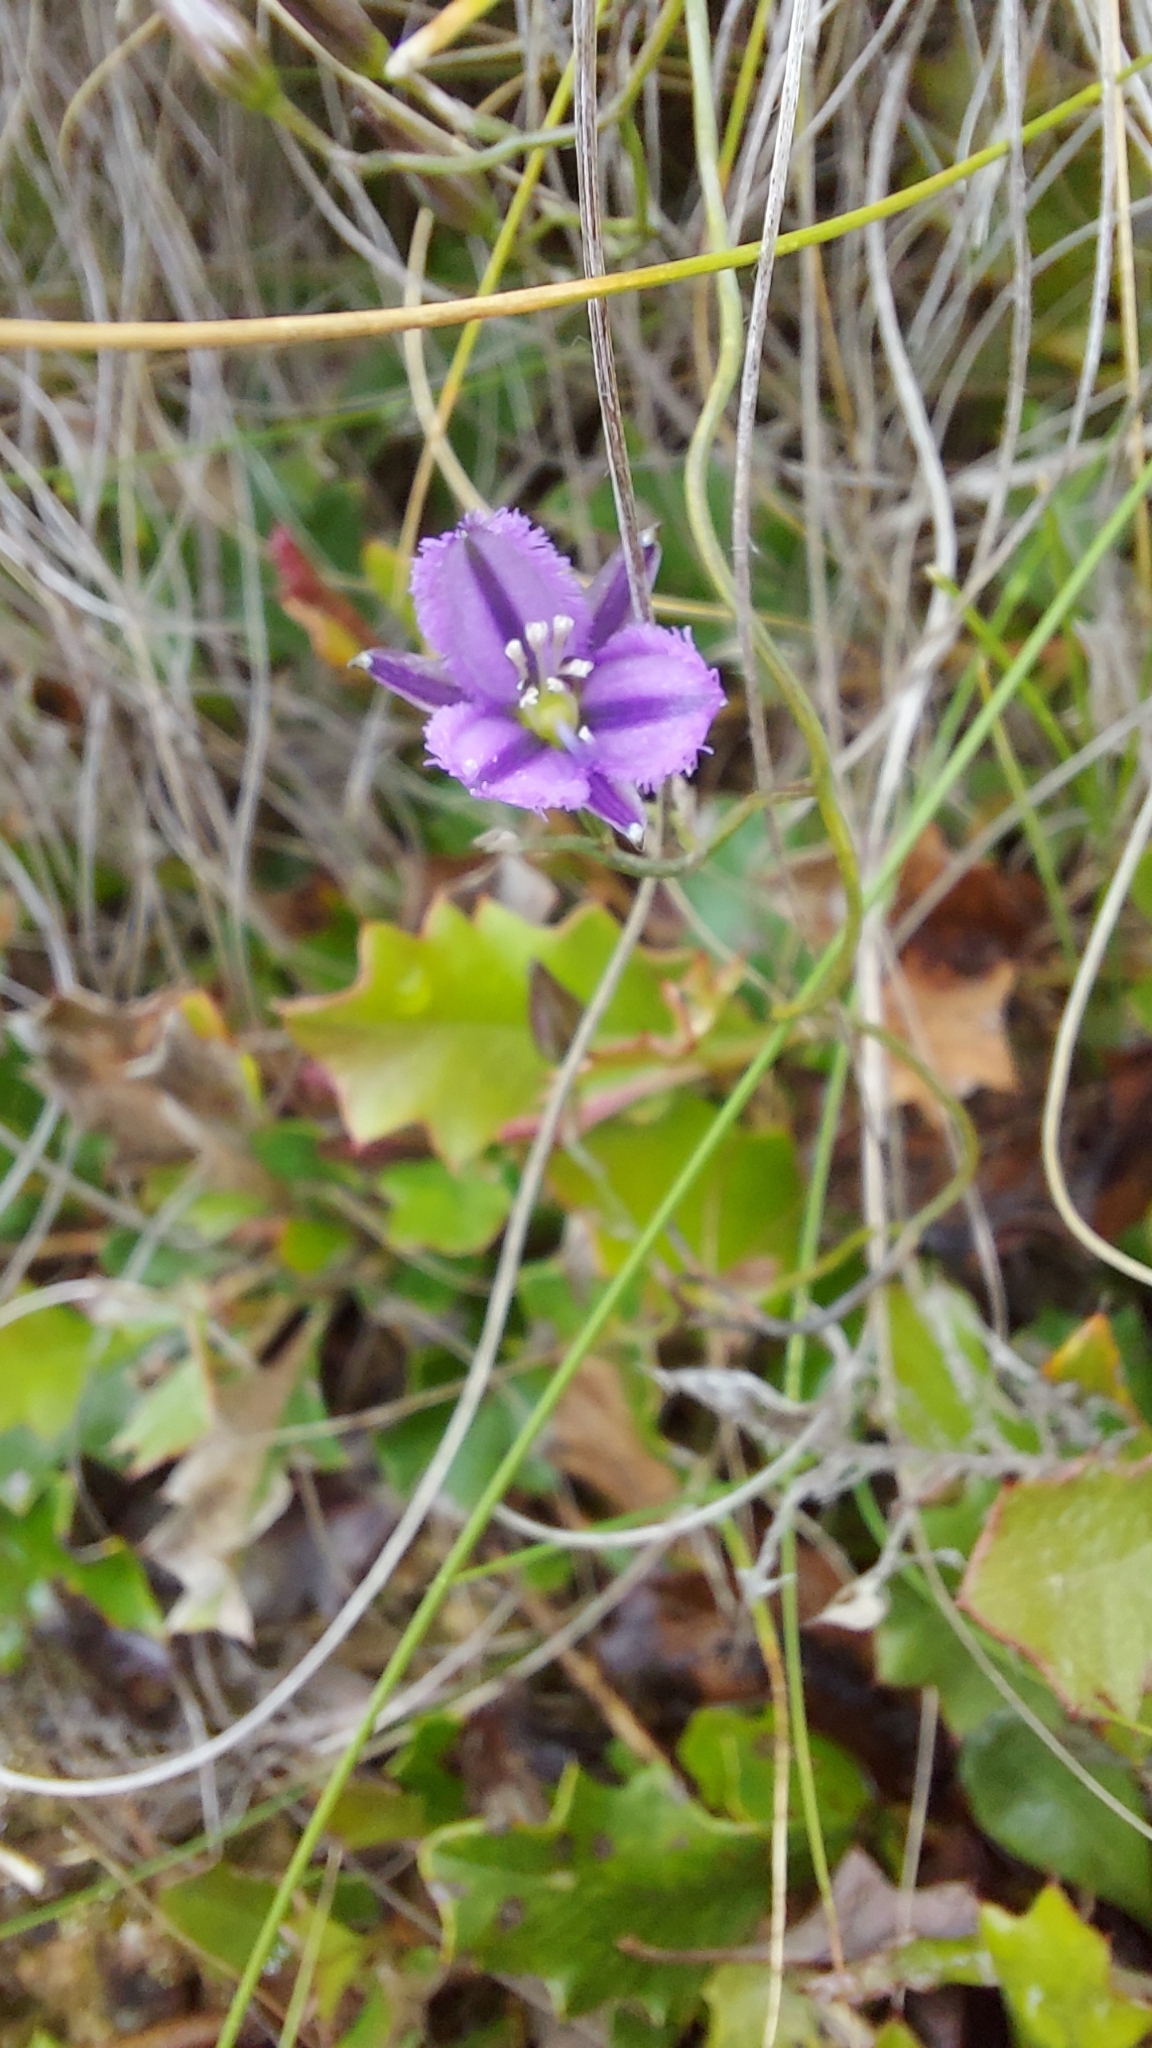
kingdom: Plantae
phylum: Tracheophyta
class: Liliopsida
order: Asparagales
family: Asparagaceae
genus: Thysanotus
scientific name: Thysanotus patersonii
